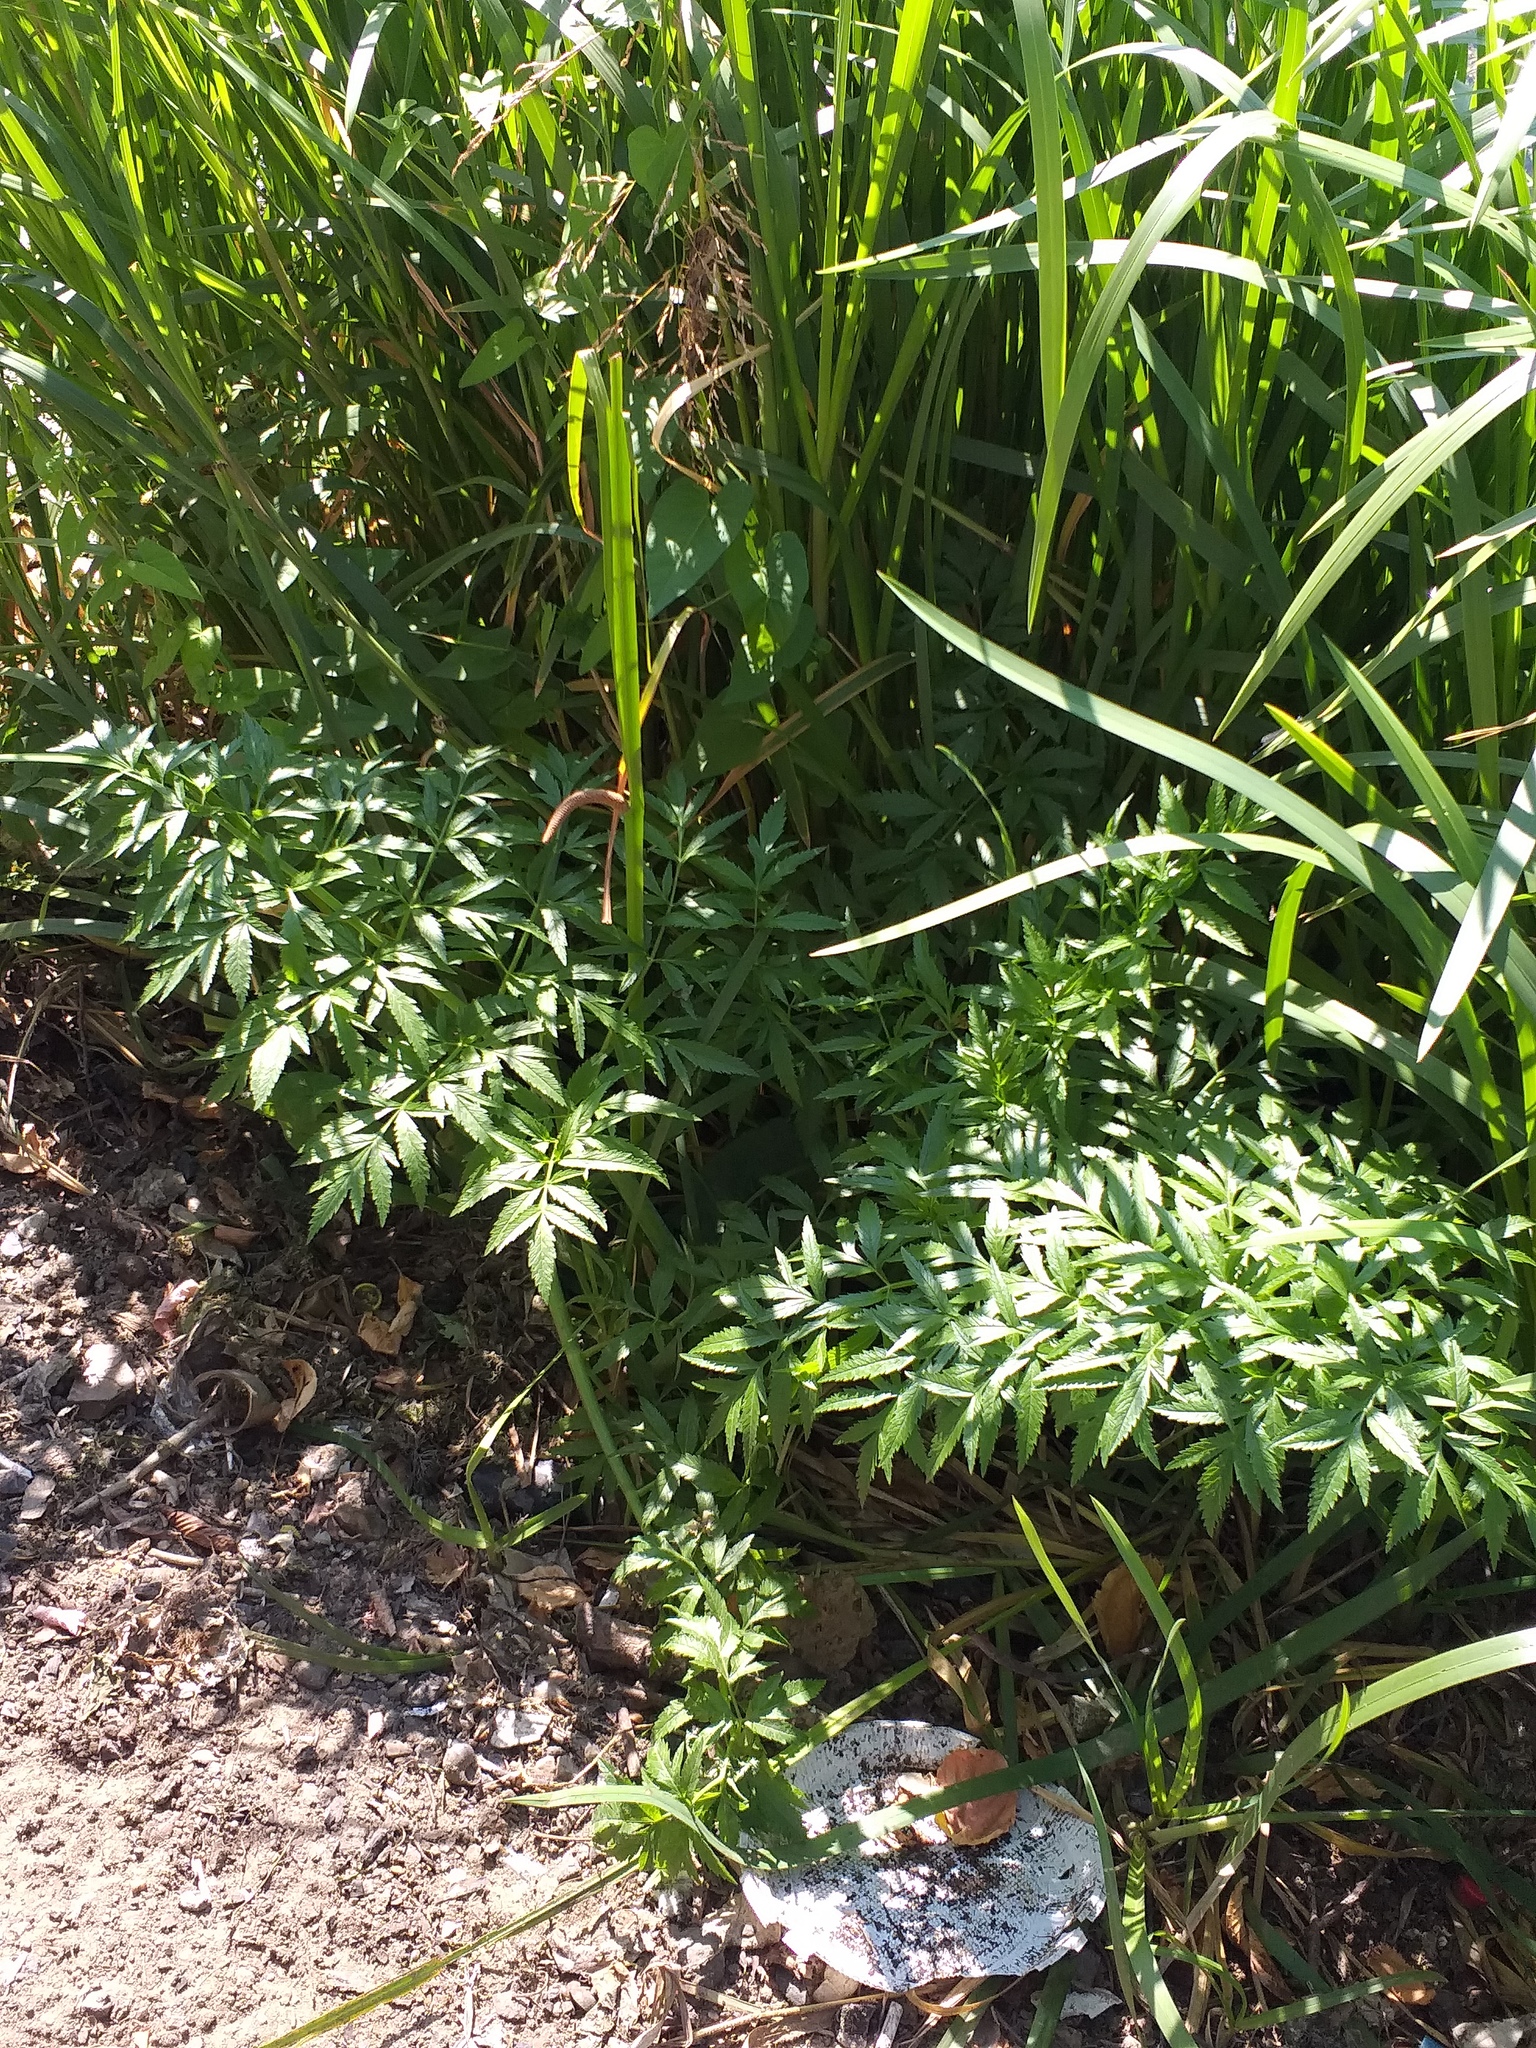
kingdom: Plantae
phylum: Tracheophyta
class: Magnoliopsida
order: Apiales
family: Apiaceae
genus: Cicuta
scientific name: Cicuta virosa
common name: Cowbane
